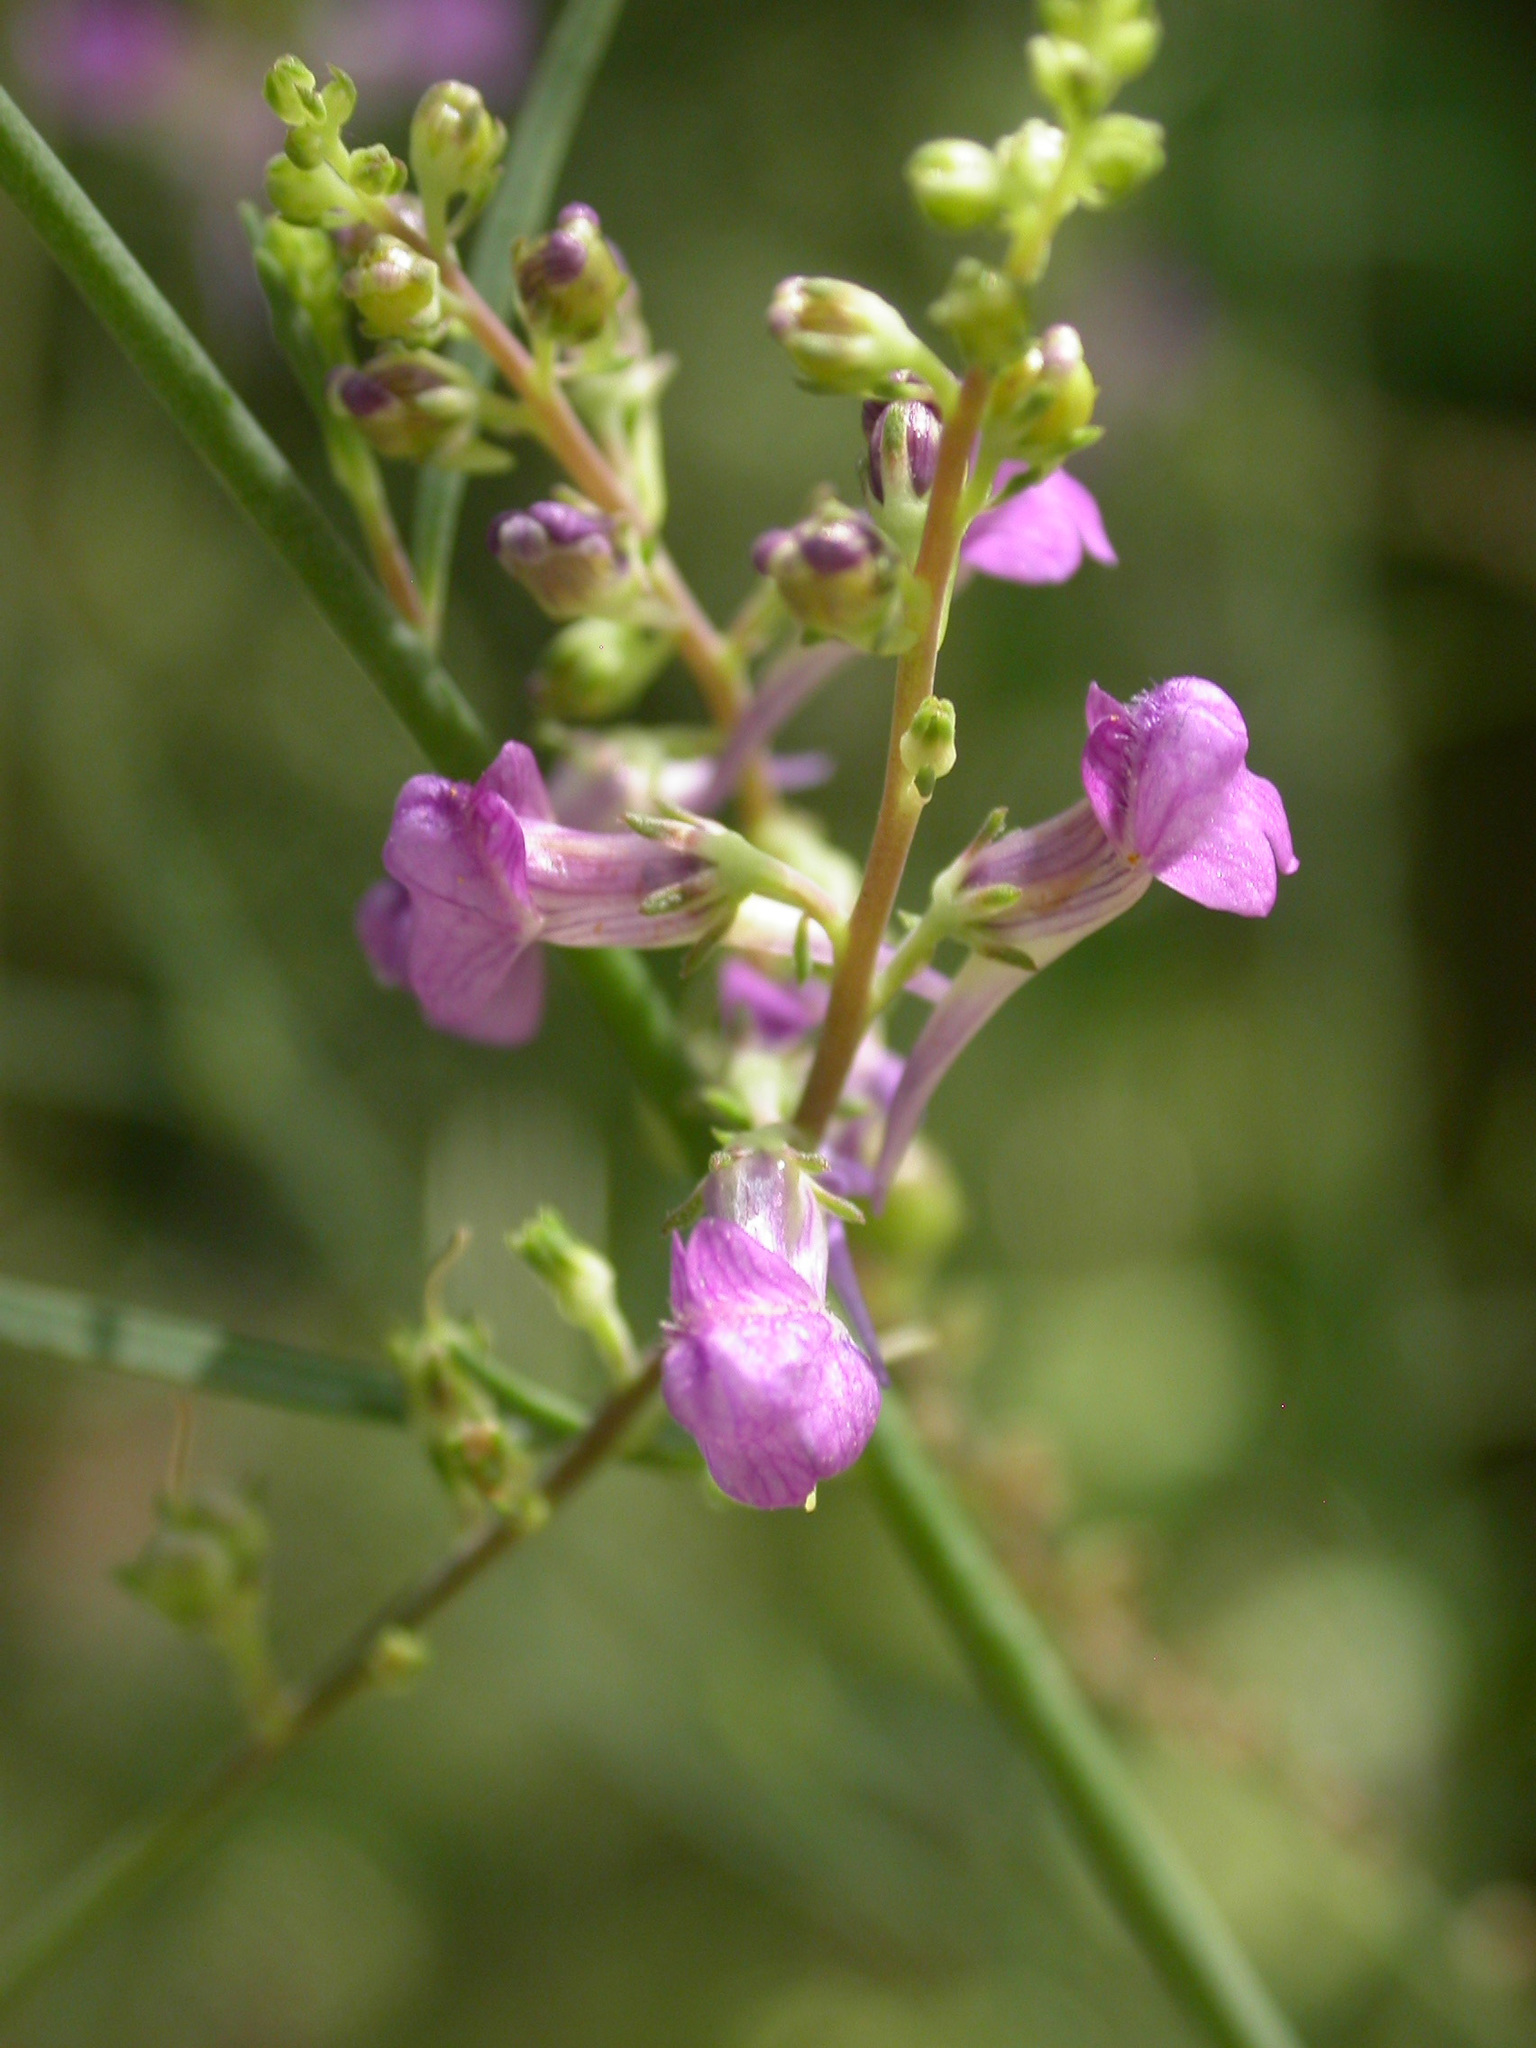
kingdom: Plantae
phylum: Tracheophyta
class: Magnoliopsida
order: Lamiales
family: Plantaginaceae
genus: Linaria
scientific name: Linaria purpurea
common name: Purple toadflax
